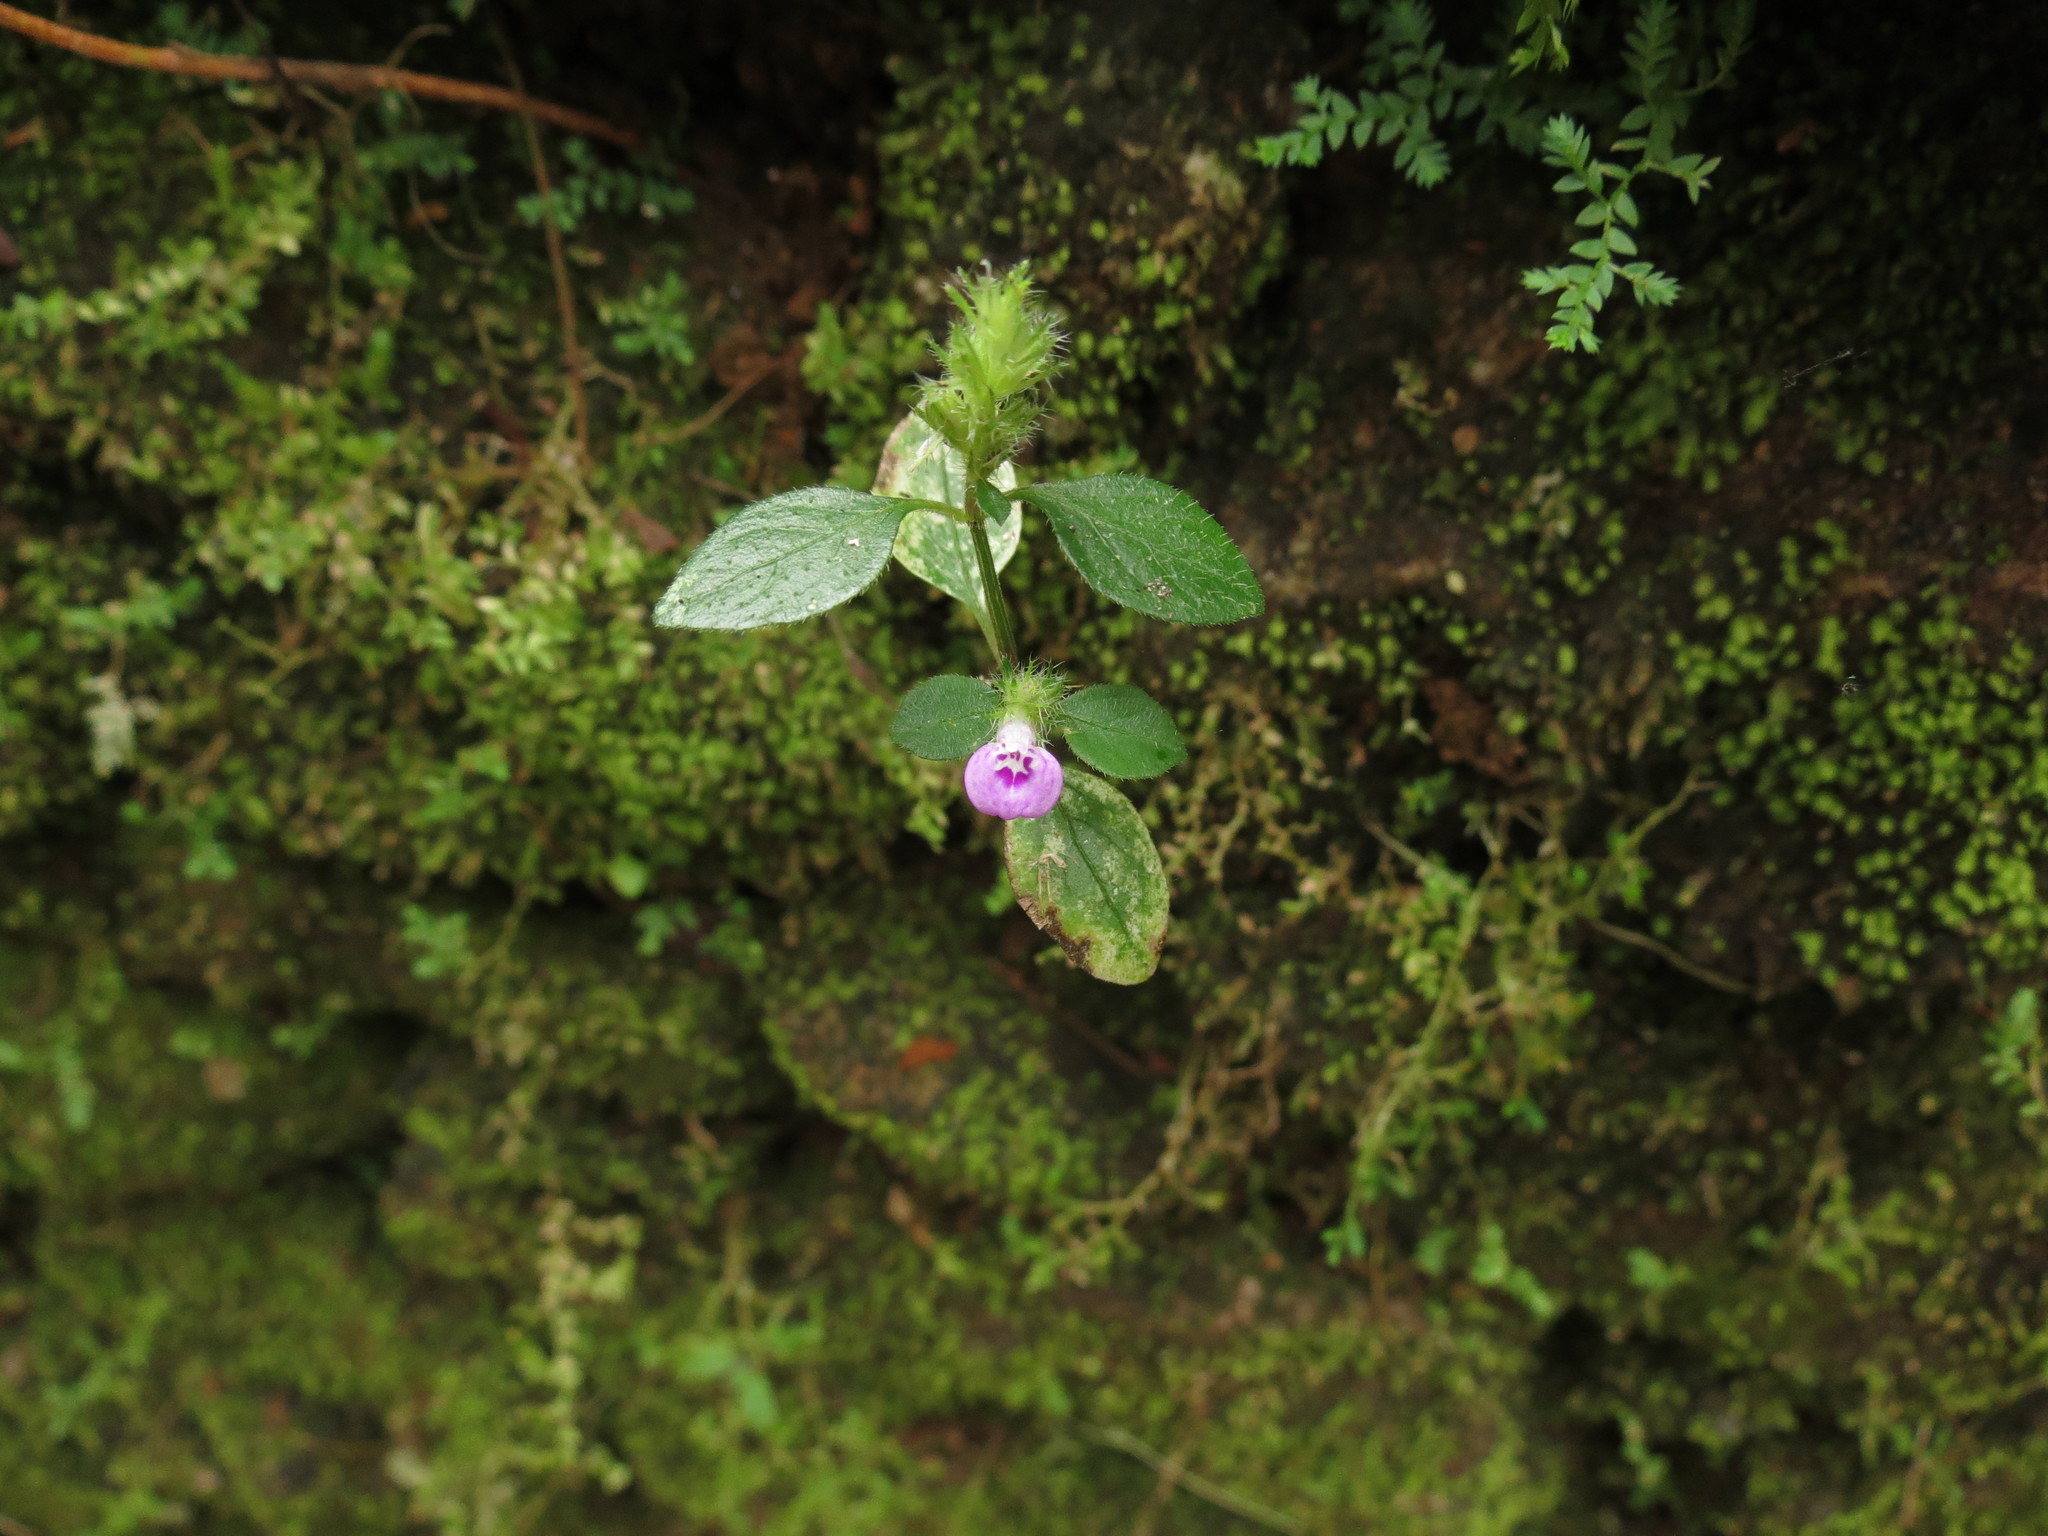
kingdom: Plantae
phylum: Tracheophyta
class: Magnoliopsida
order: Lamiales
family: Acanthaceae
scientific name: Acanthaceae
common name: Acanthaceae
